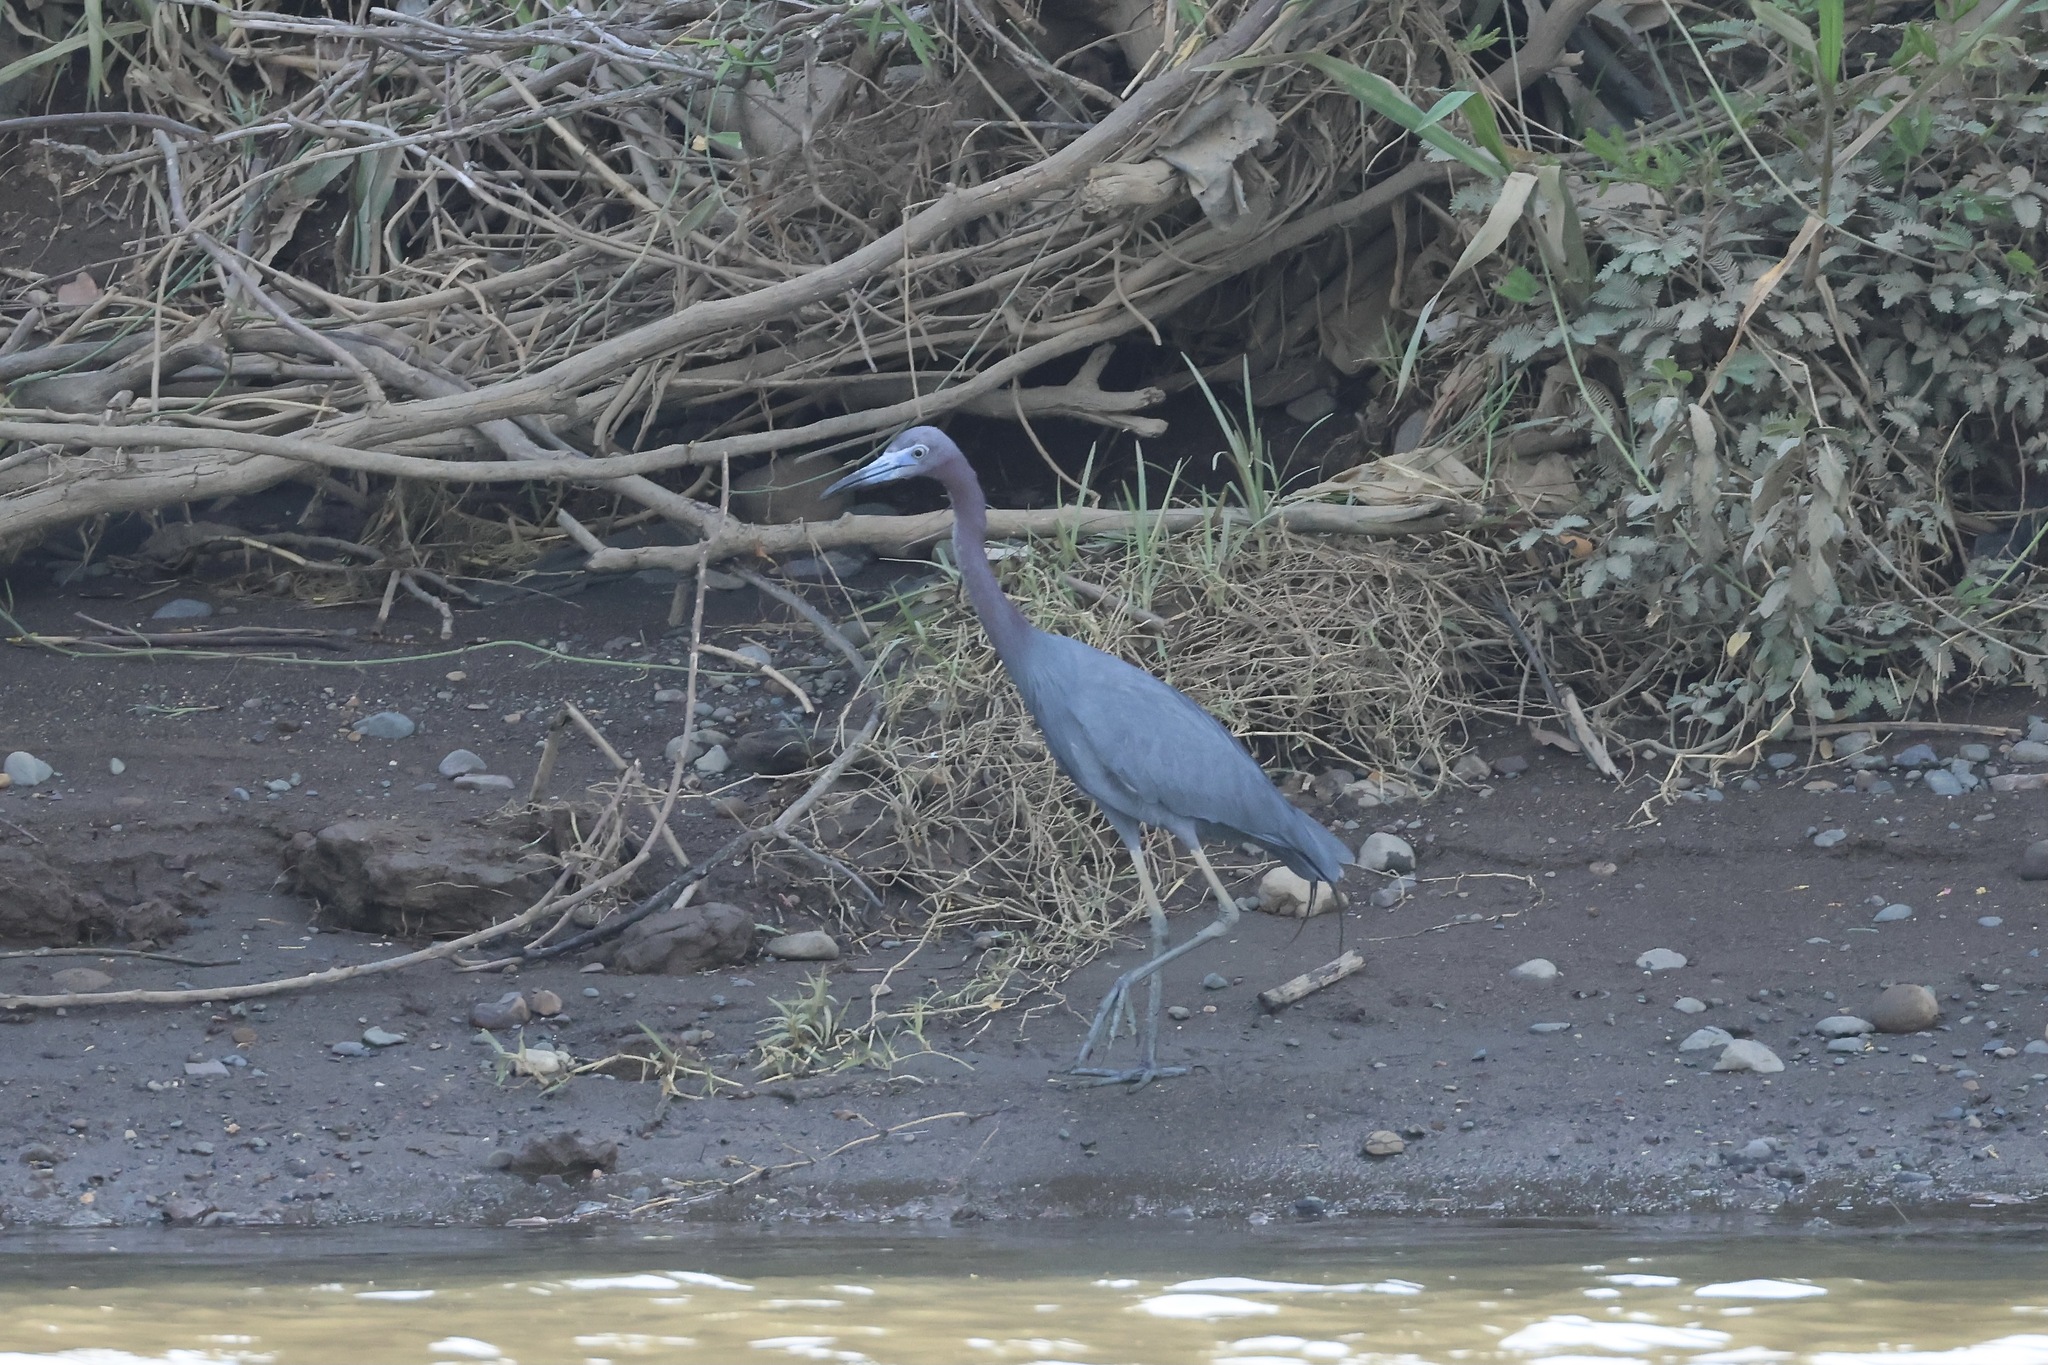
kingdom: Animalia
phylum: Chordata
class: Aves
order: Pelecaniformes
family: Ardeidae
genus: Egretta
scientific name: Egretta caerulea
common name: Little blue heron
